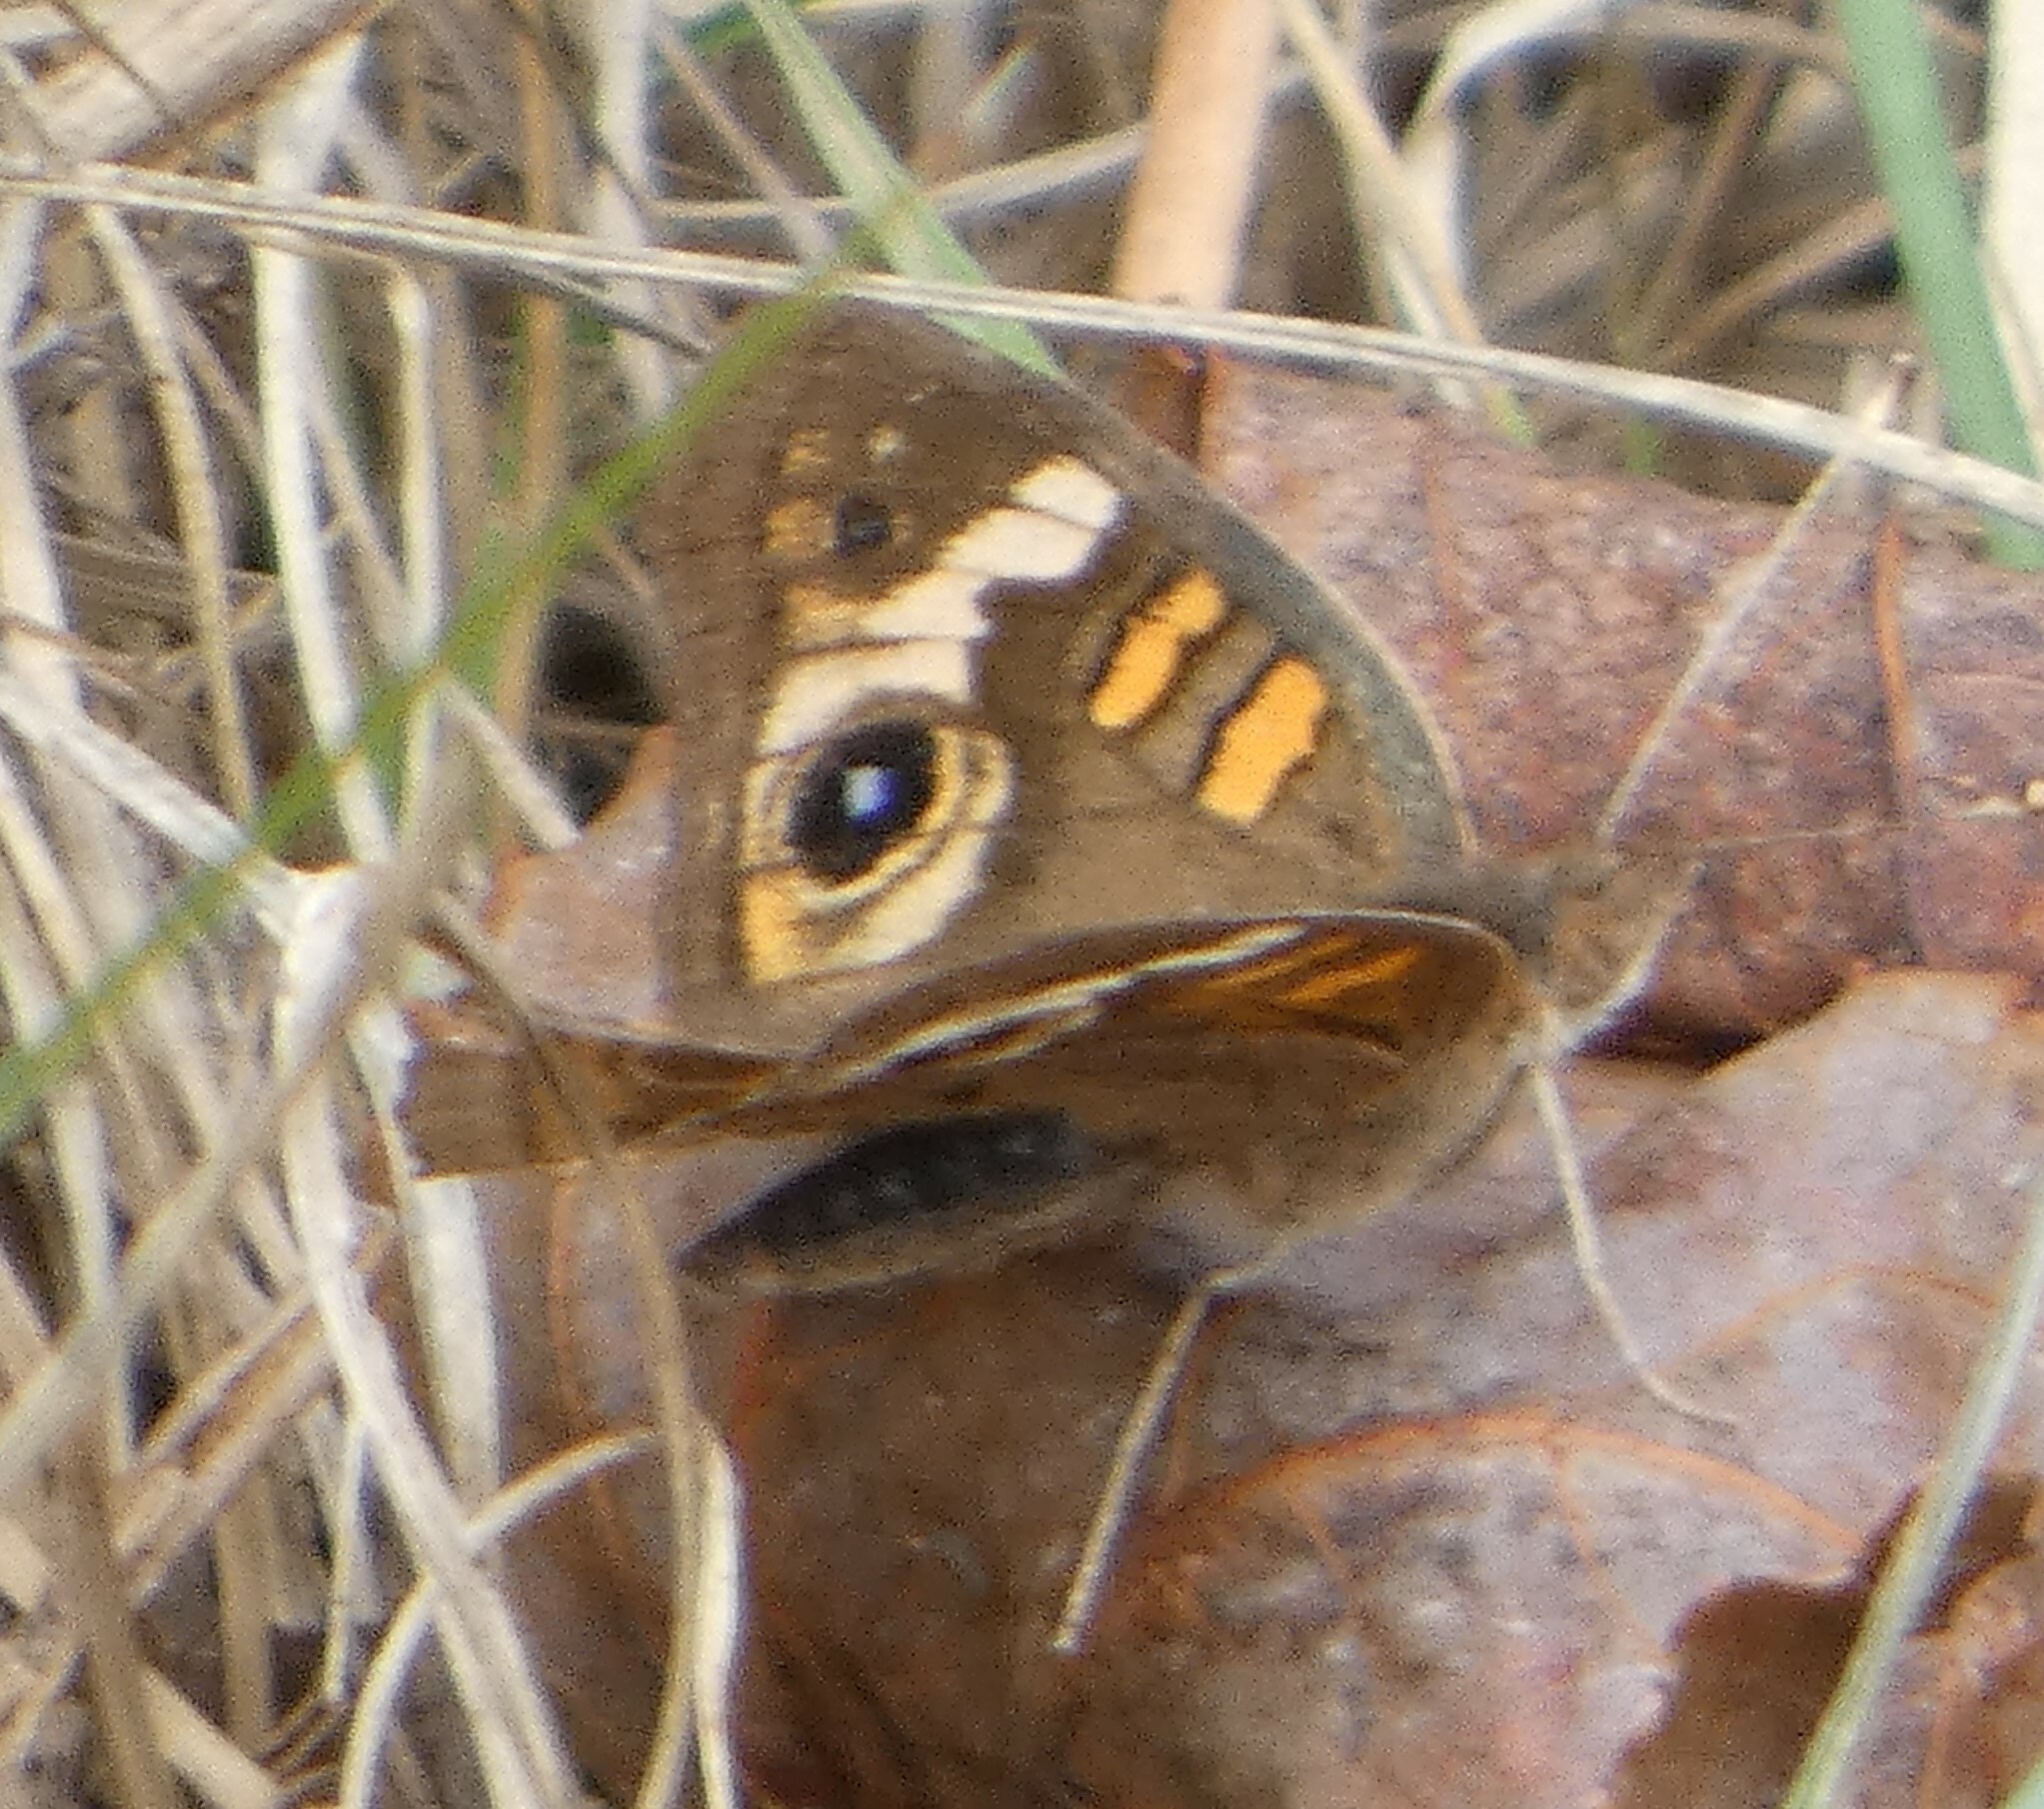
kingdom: Animalia
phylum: Arthropoda
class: Insecta
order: Lepidoptera
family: Nymphalidae
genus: Junonia
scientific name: Junonia coenia
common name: Common buckeye
